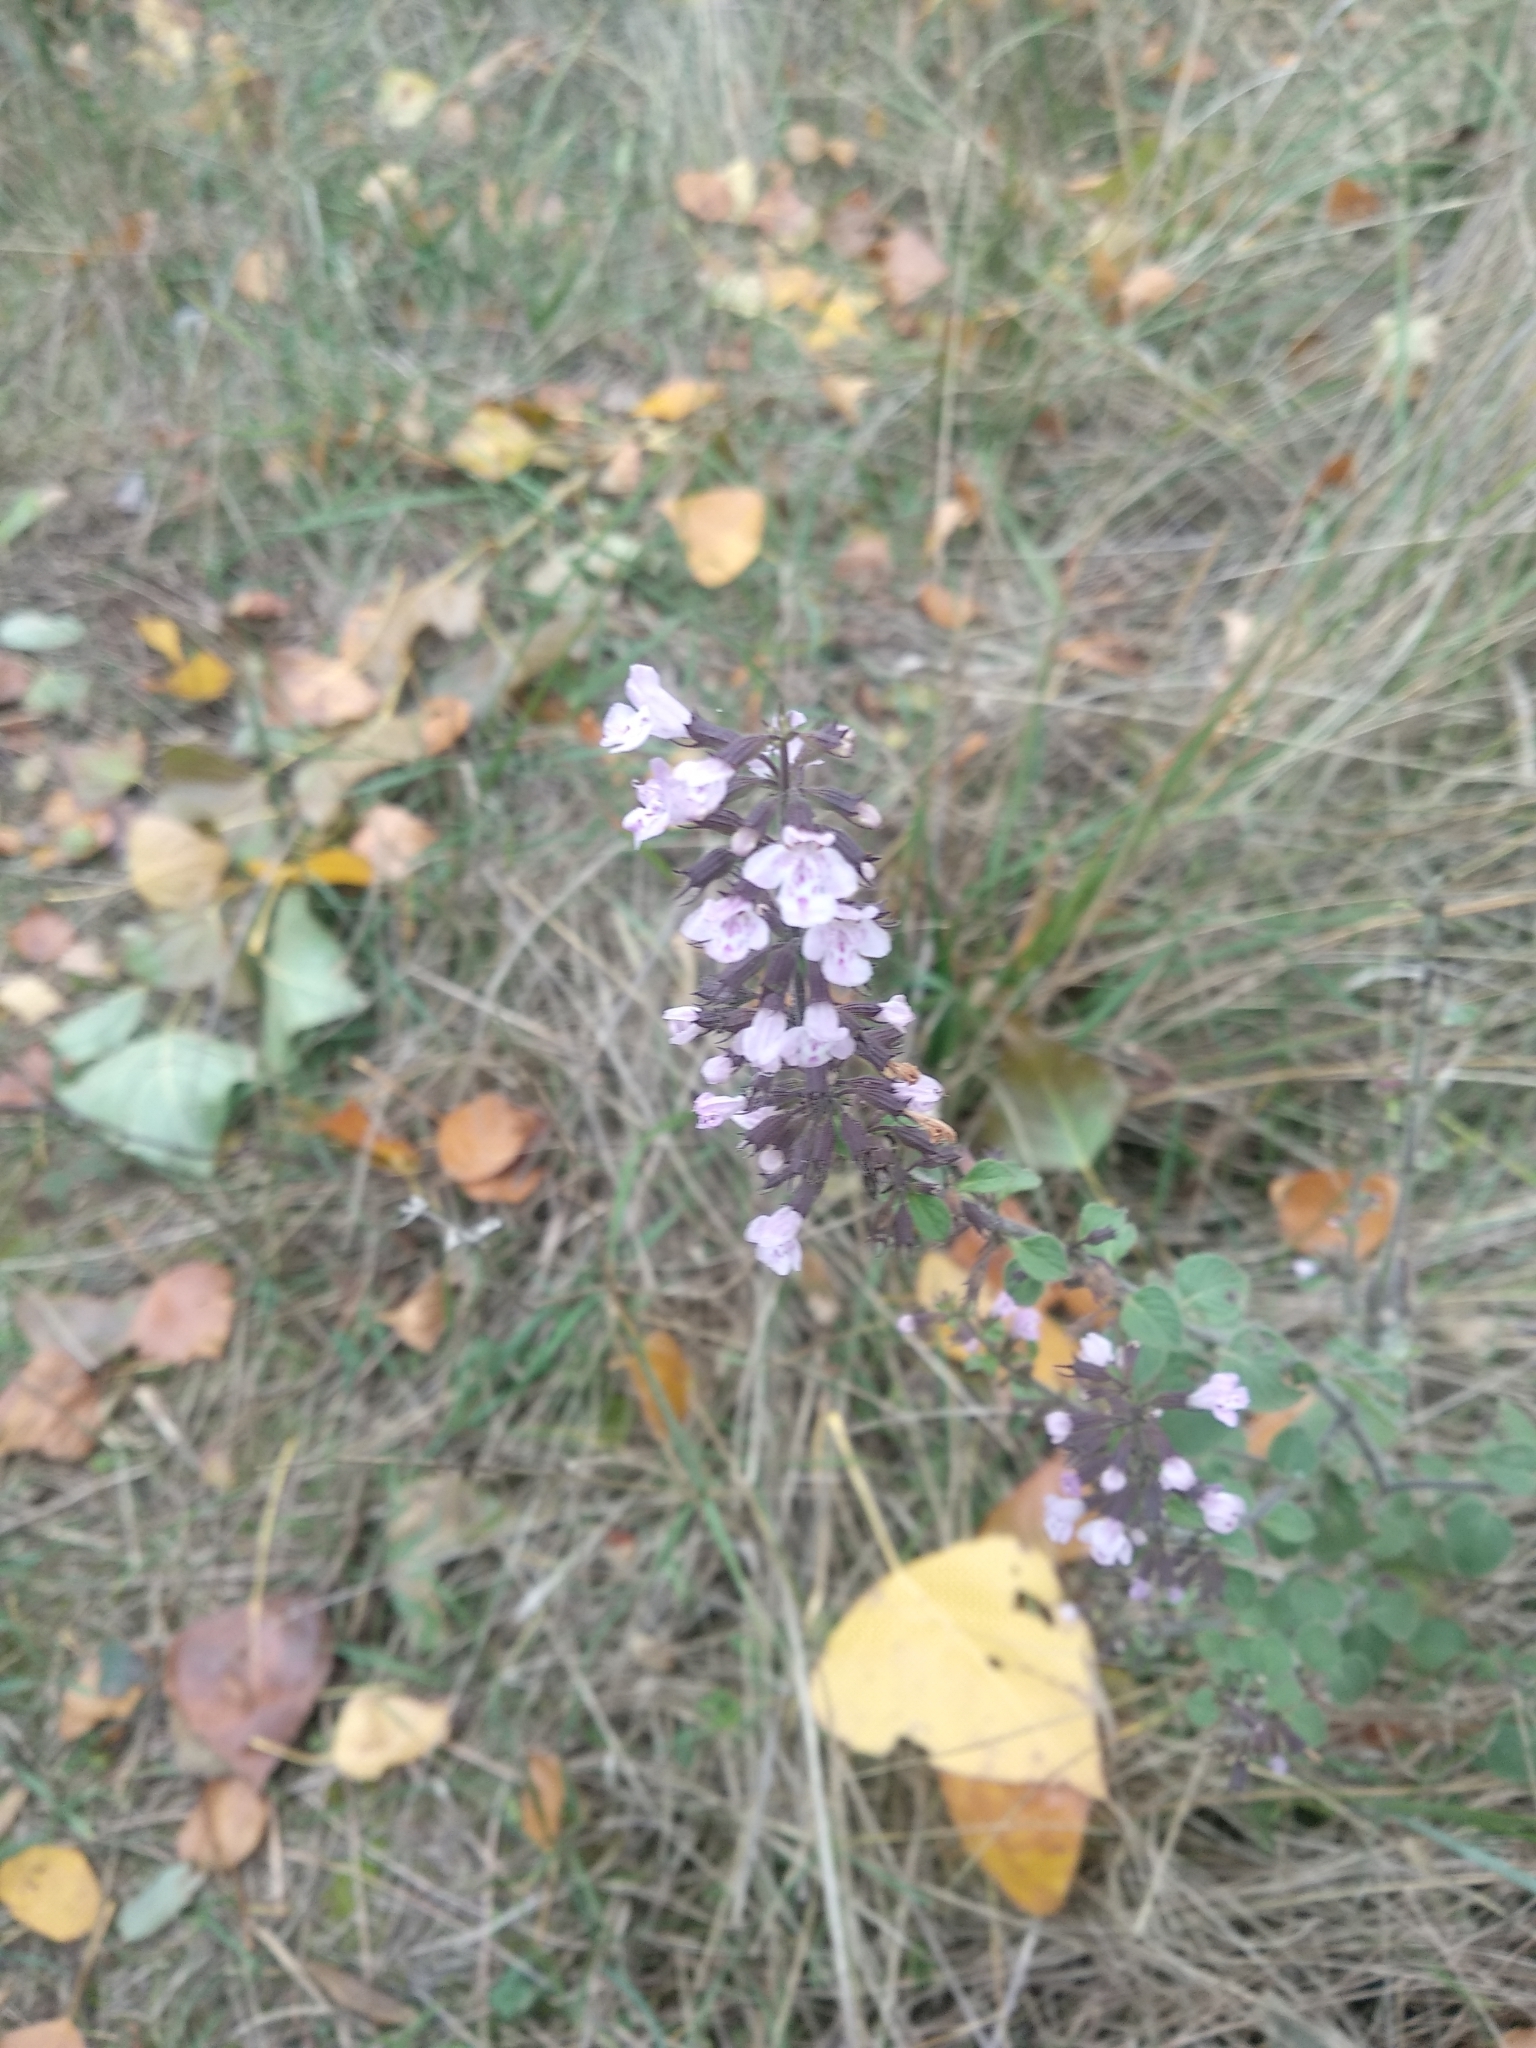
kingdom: Plantae
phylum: Tracheophyta
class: Magnoliopsida
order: Lamiales
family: Lamiaceae
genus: Clinopodium
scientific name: Clinopodium nepeta
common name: Lesser calamint
